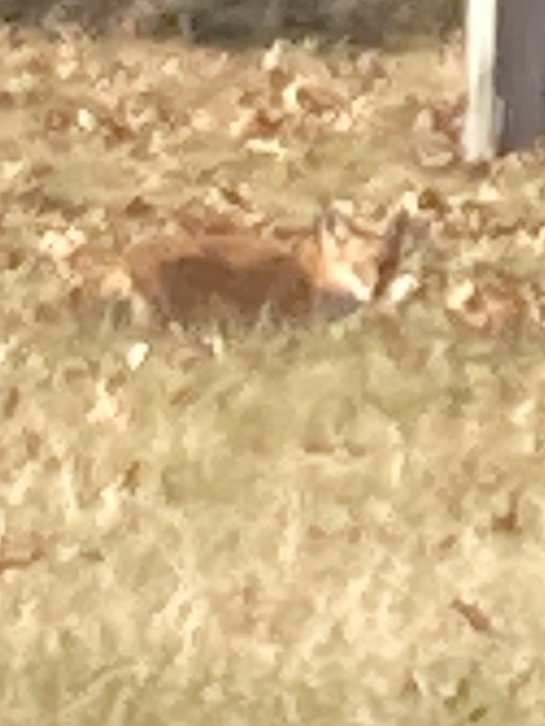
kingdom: Animalia
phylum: Chordata
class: Mammalia
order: Carnivora
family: Canidae
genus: Vulpes
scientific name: Vulpes vulpes
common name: Red fox
